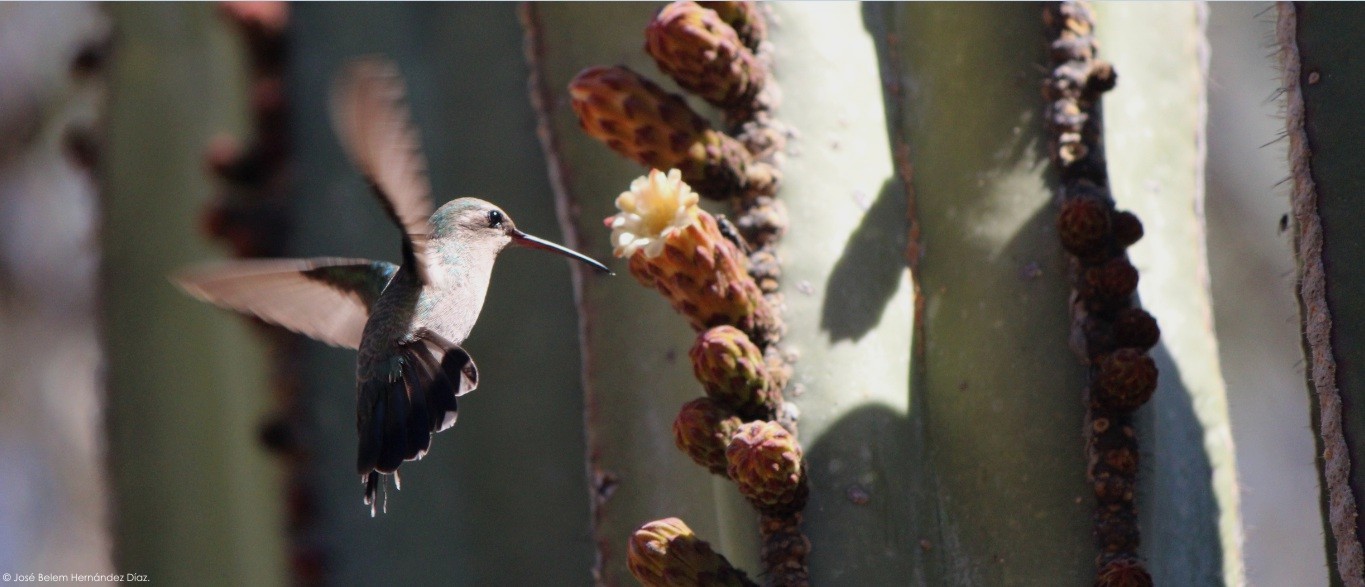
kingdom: Animalia
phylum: Chordata
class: Aves
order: Apodiformes
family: Trochilidae
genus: Cynanthus
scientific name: Cynanthus latirostris
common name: Broad-billed hummingbird
